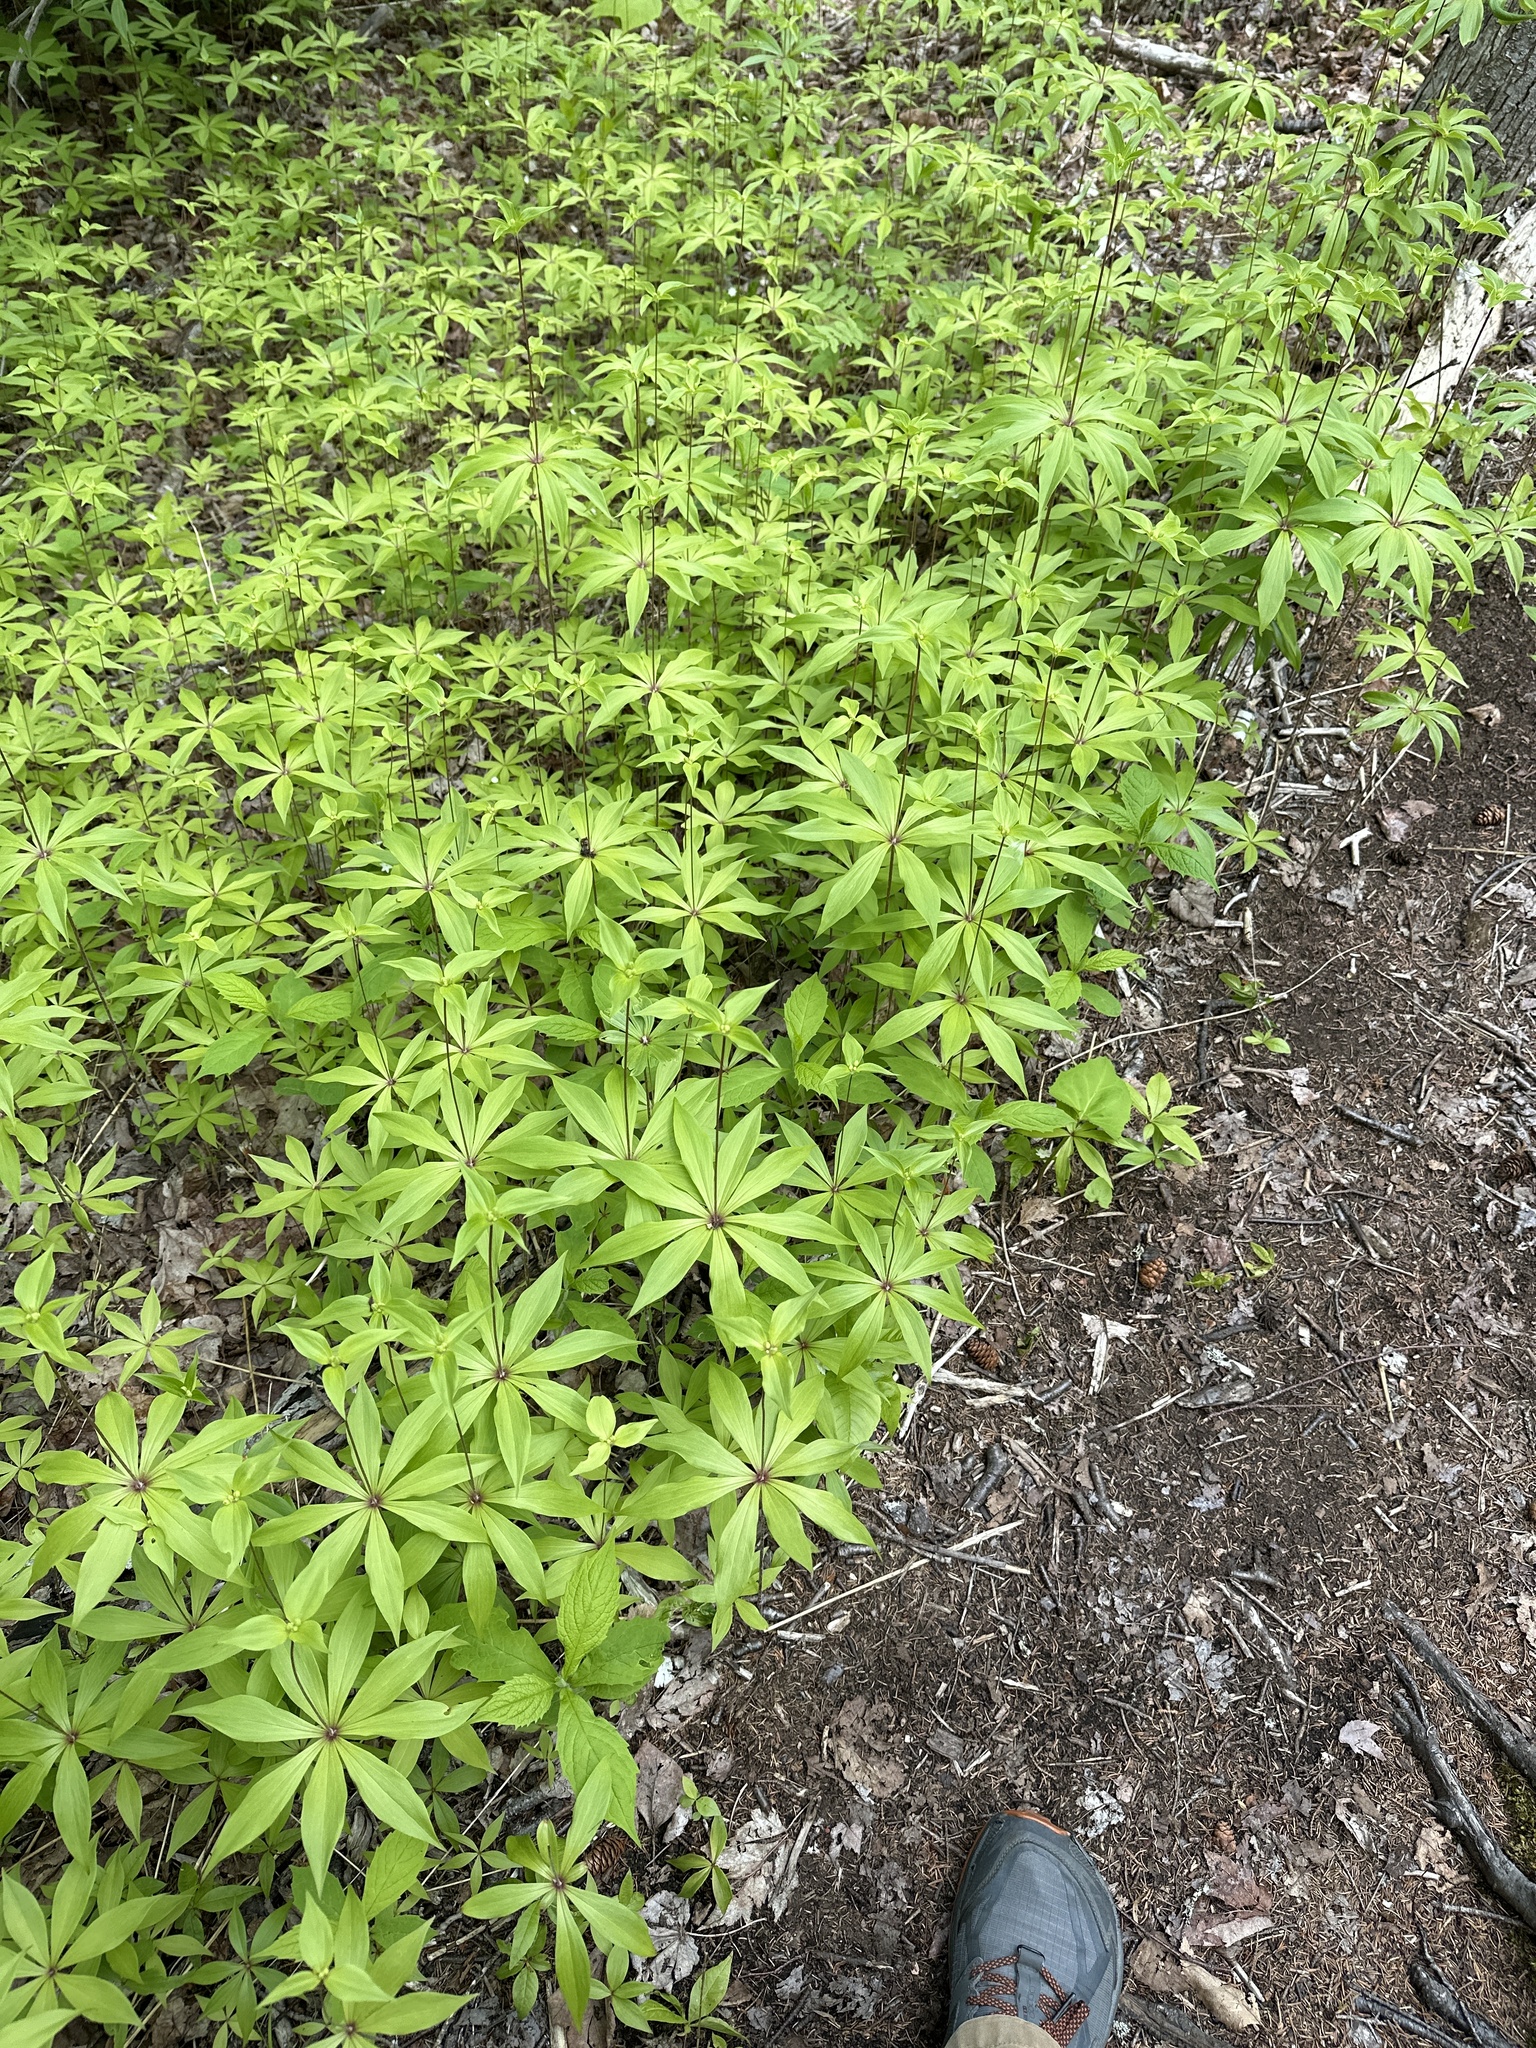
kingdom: Plantae
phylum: Tracheophyta
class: Liliopsida
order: Liliales
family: Liliaceae
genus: Medeola
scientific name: Medeola virginiana
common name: Indian cucumber-root
